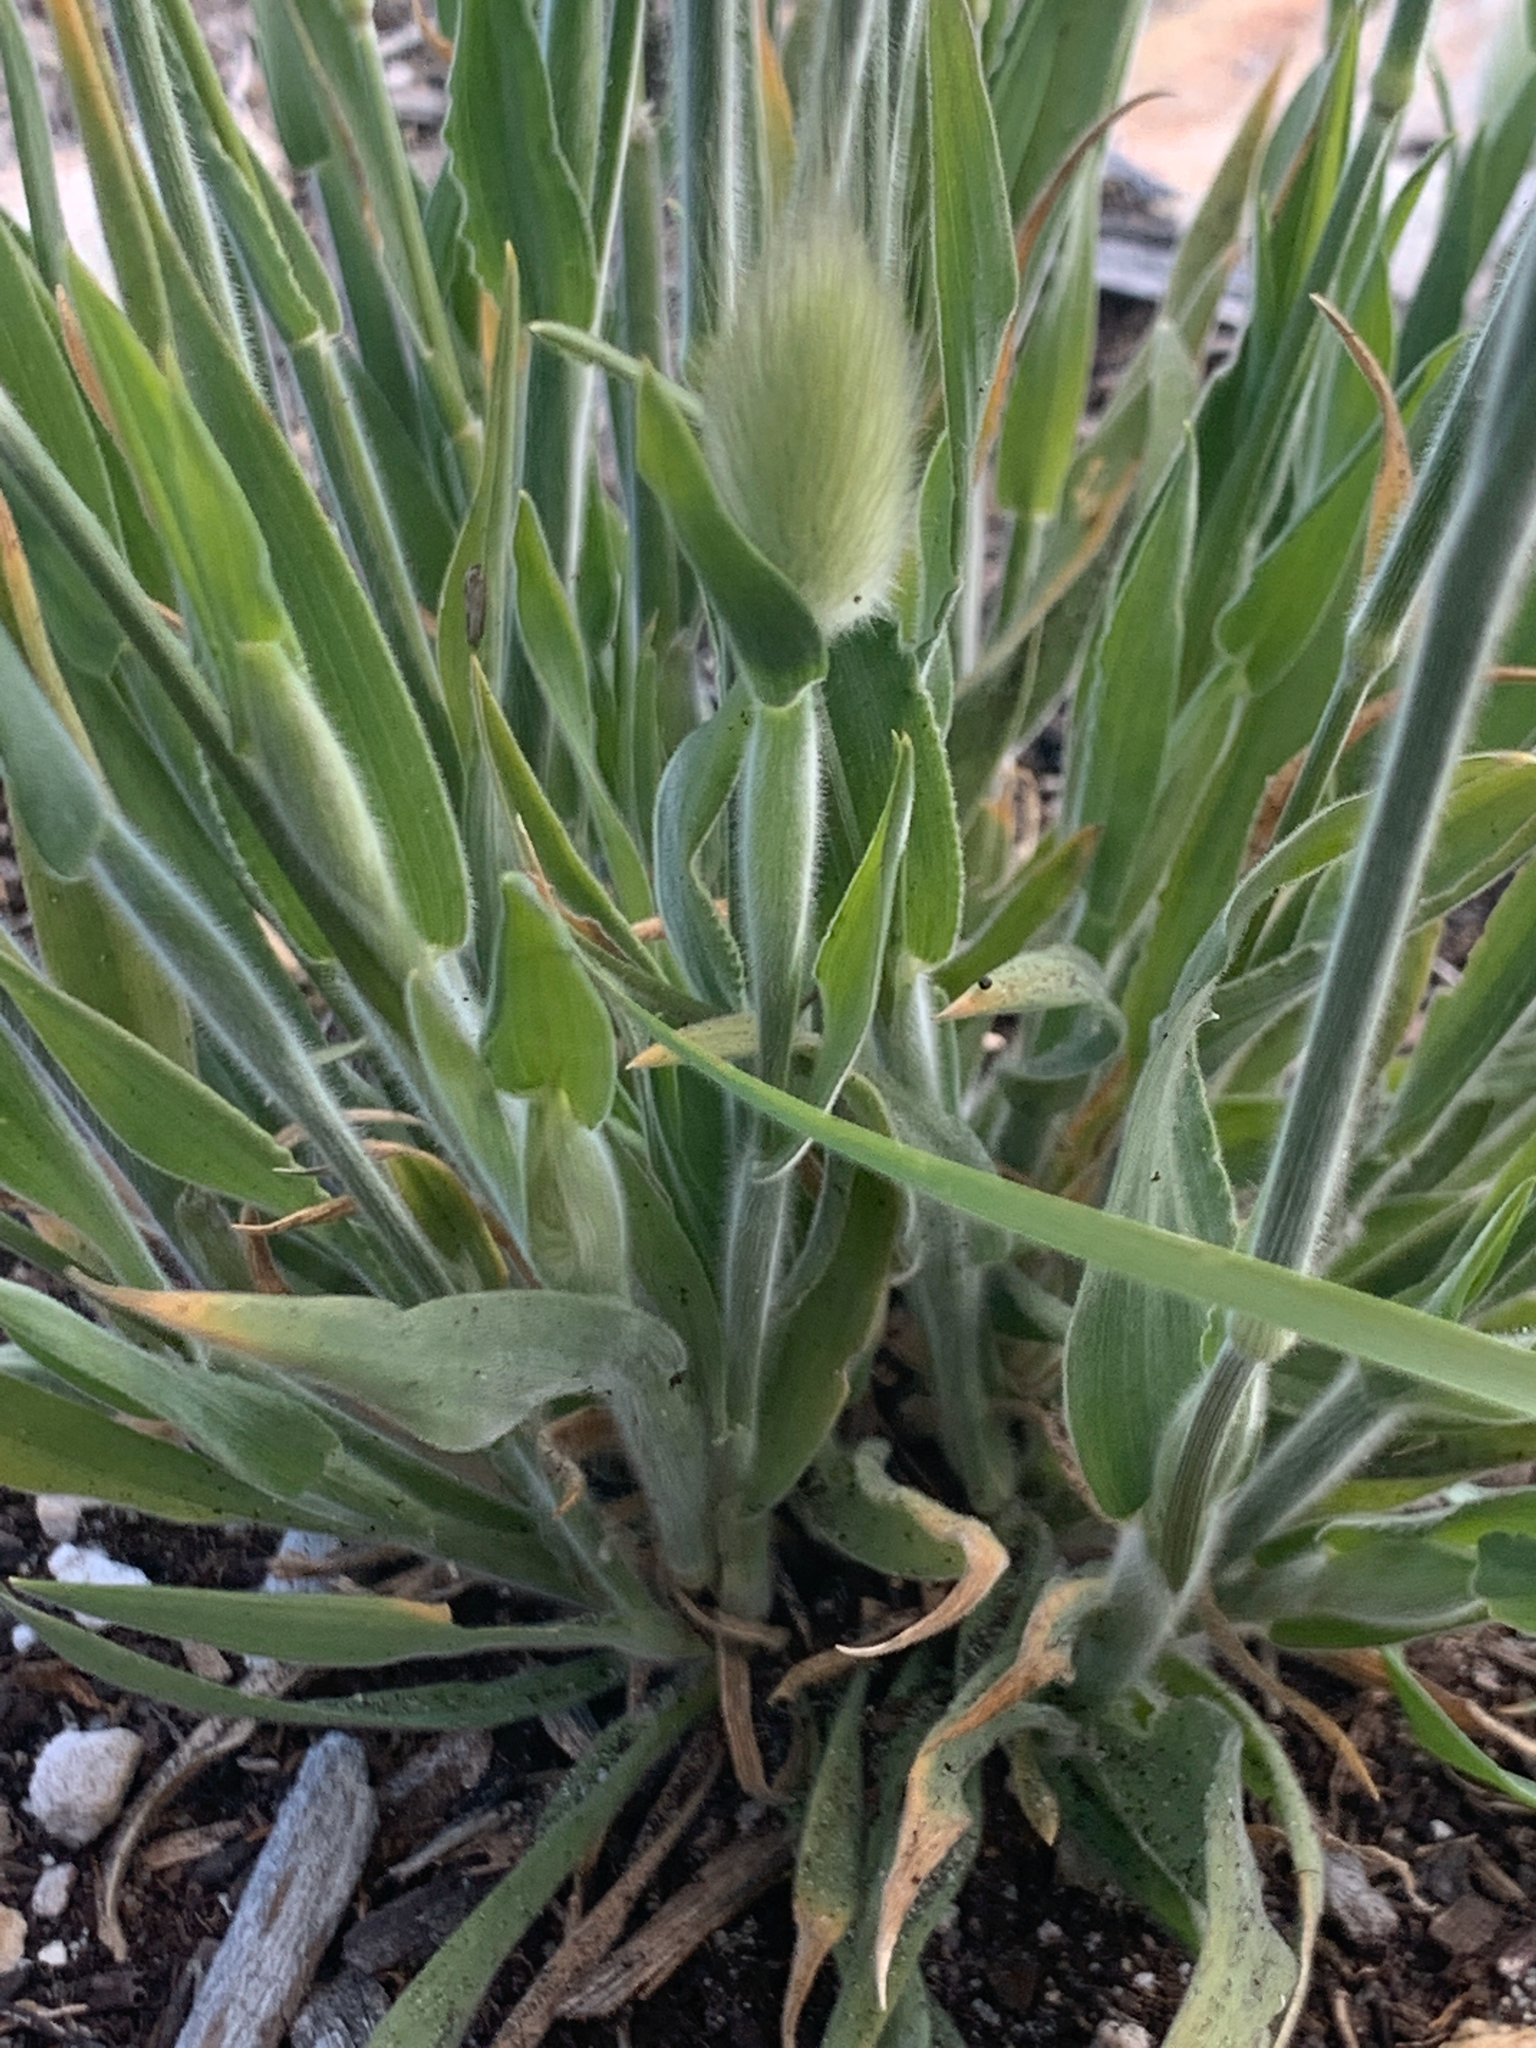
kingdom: Plantae
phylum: Tracheophyta
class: Liliopsida
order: Poales
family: Poaceae
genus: Lagurus
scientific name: Lagurus ovatus
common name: Hare's-tail
